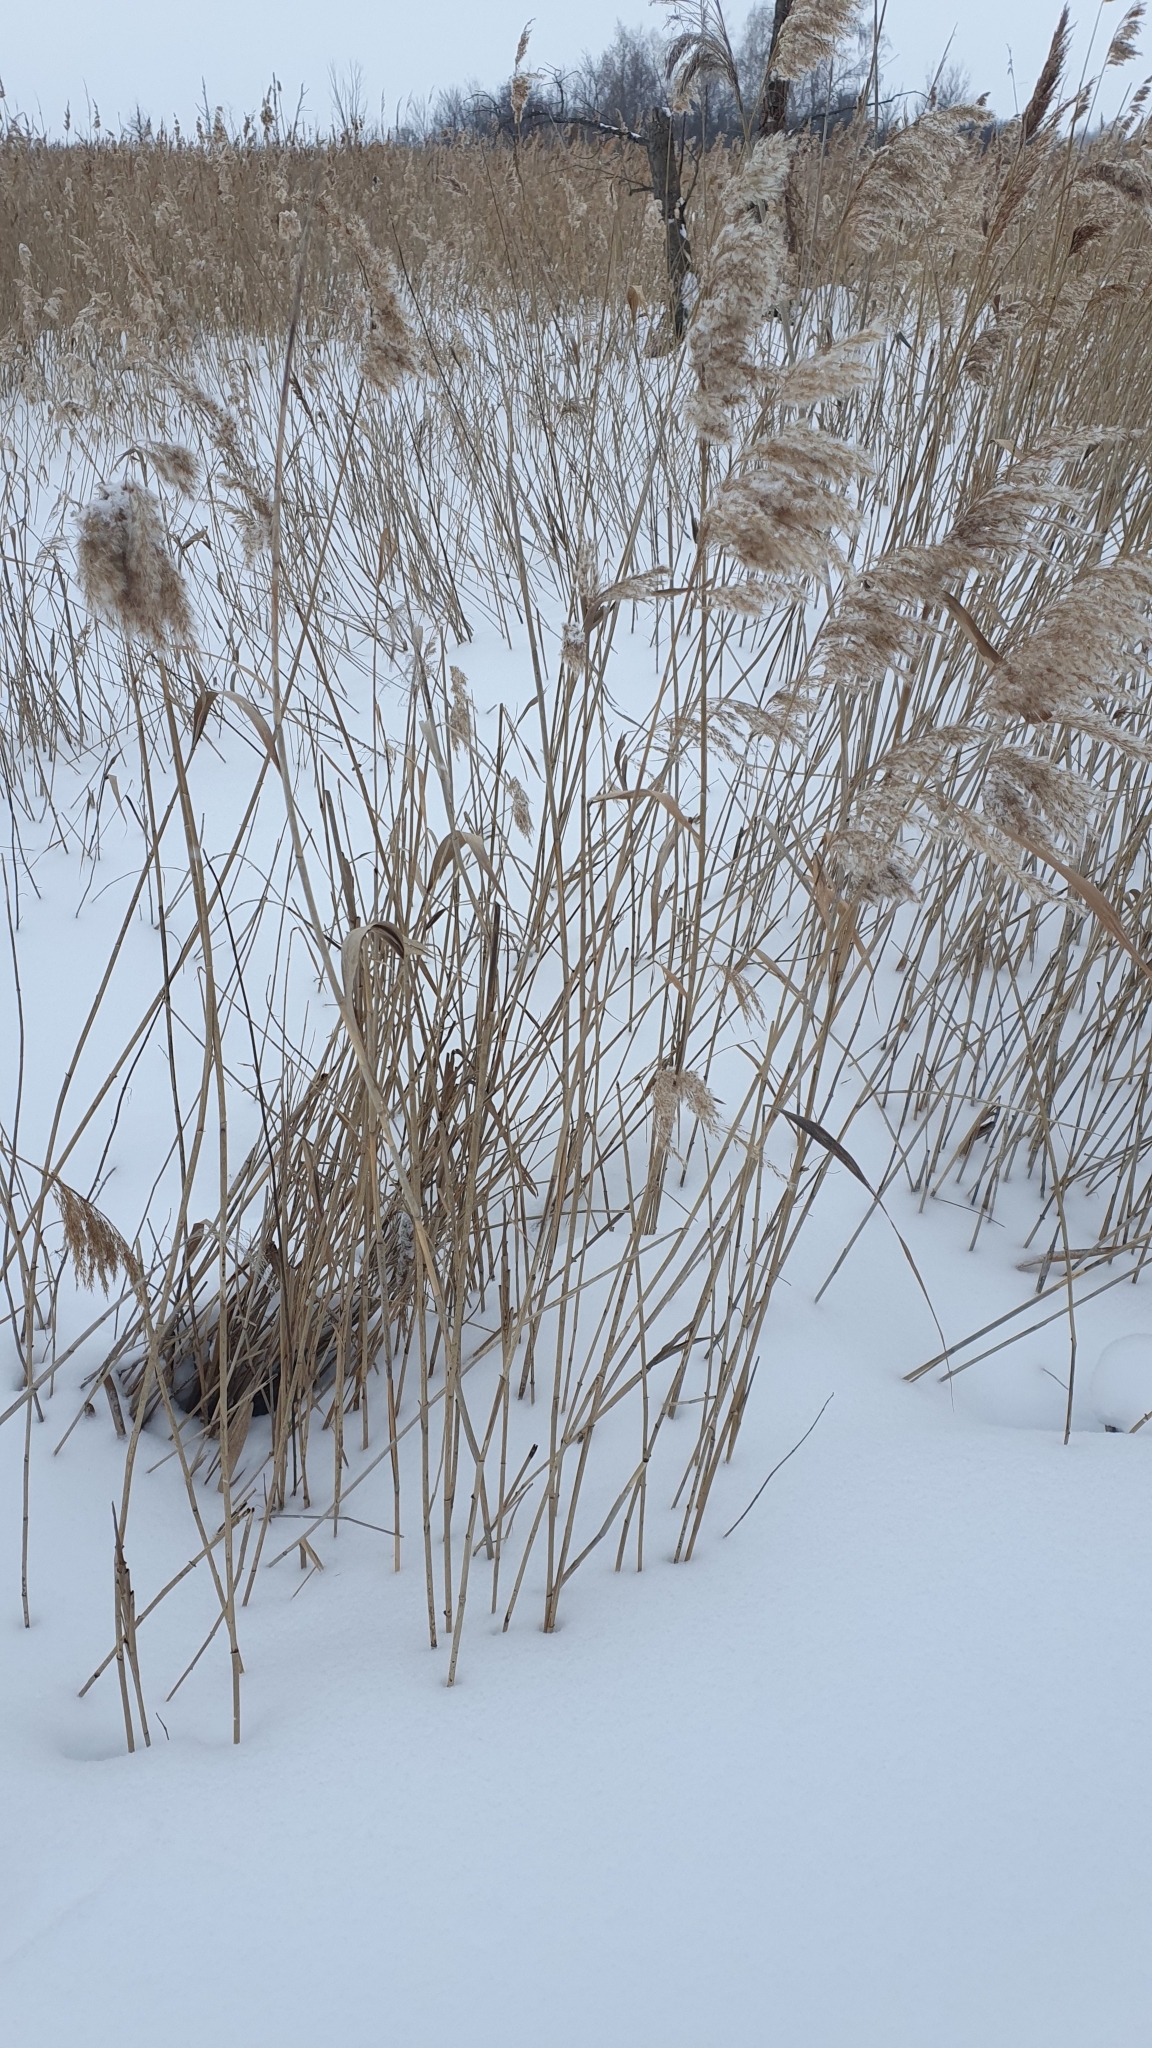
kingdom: Plantae
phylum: Tracheophyta
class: Liliopsida
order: Poales
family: Poaceae
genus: Phragmites
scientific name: Phragmites australis
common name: Common reed
